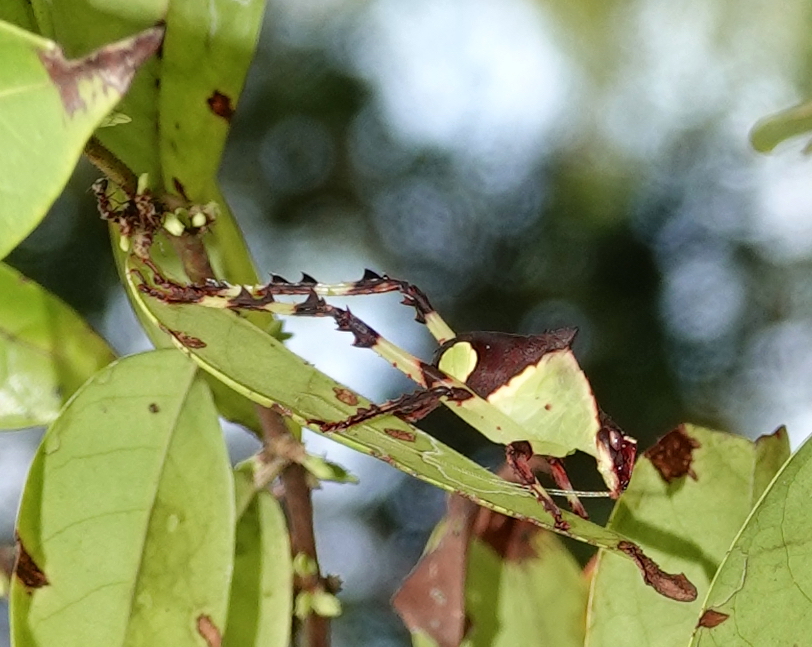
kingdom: Animalia
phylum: Arthropoda
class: Insecta
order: Orthoptera
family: Tettigoniidae
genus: Ancylecha
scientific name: Ancylecha fenestrata
